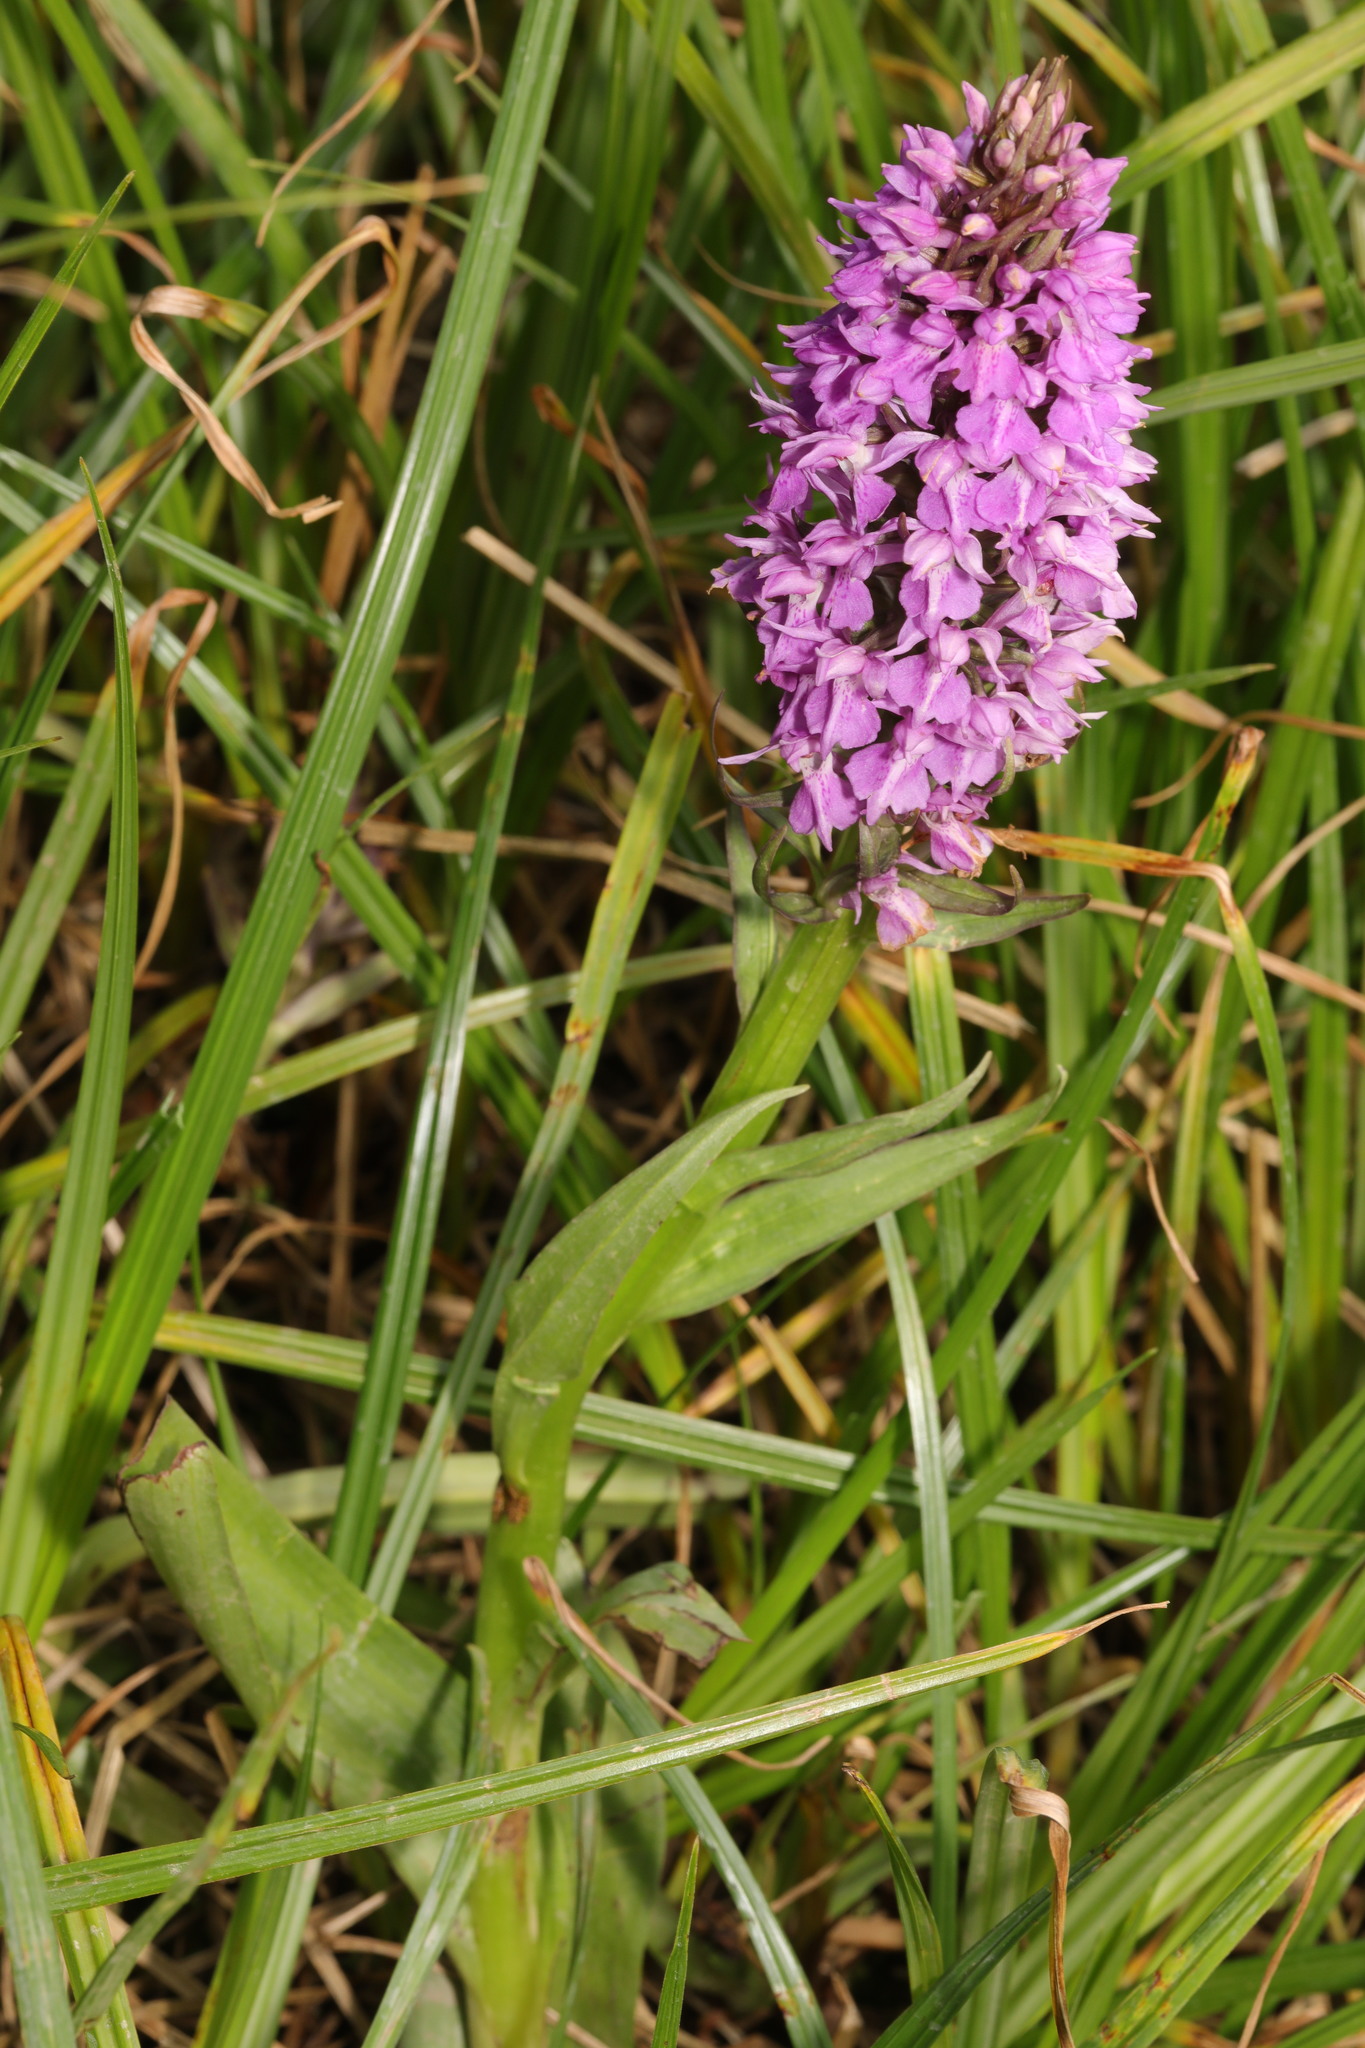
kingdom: Plantae
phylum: Tracheophyta
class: Liliopsida
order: Asparagales
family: Orchidaceae
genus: Dactylorhiza
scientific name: Dactylorhiza majalis
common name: Marsh orchid
